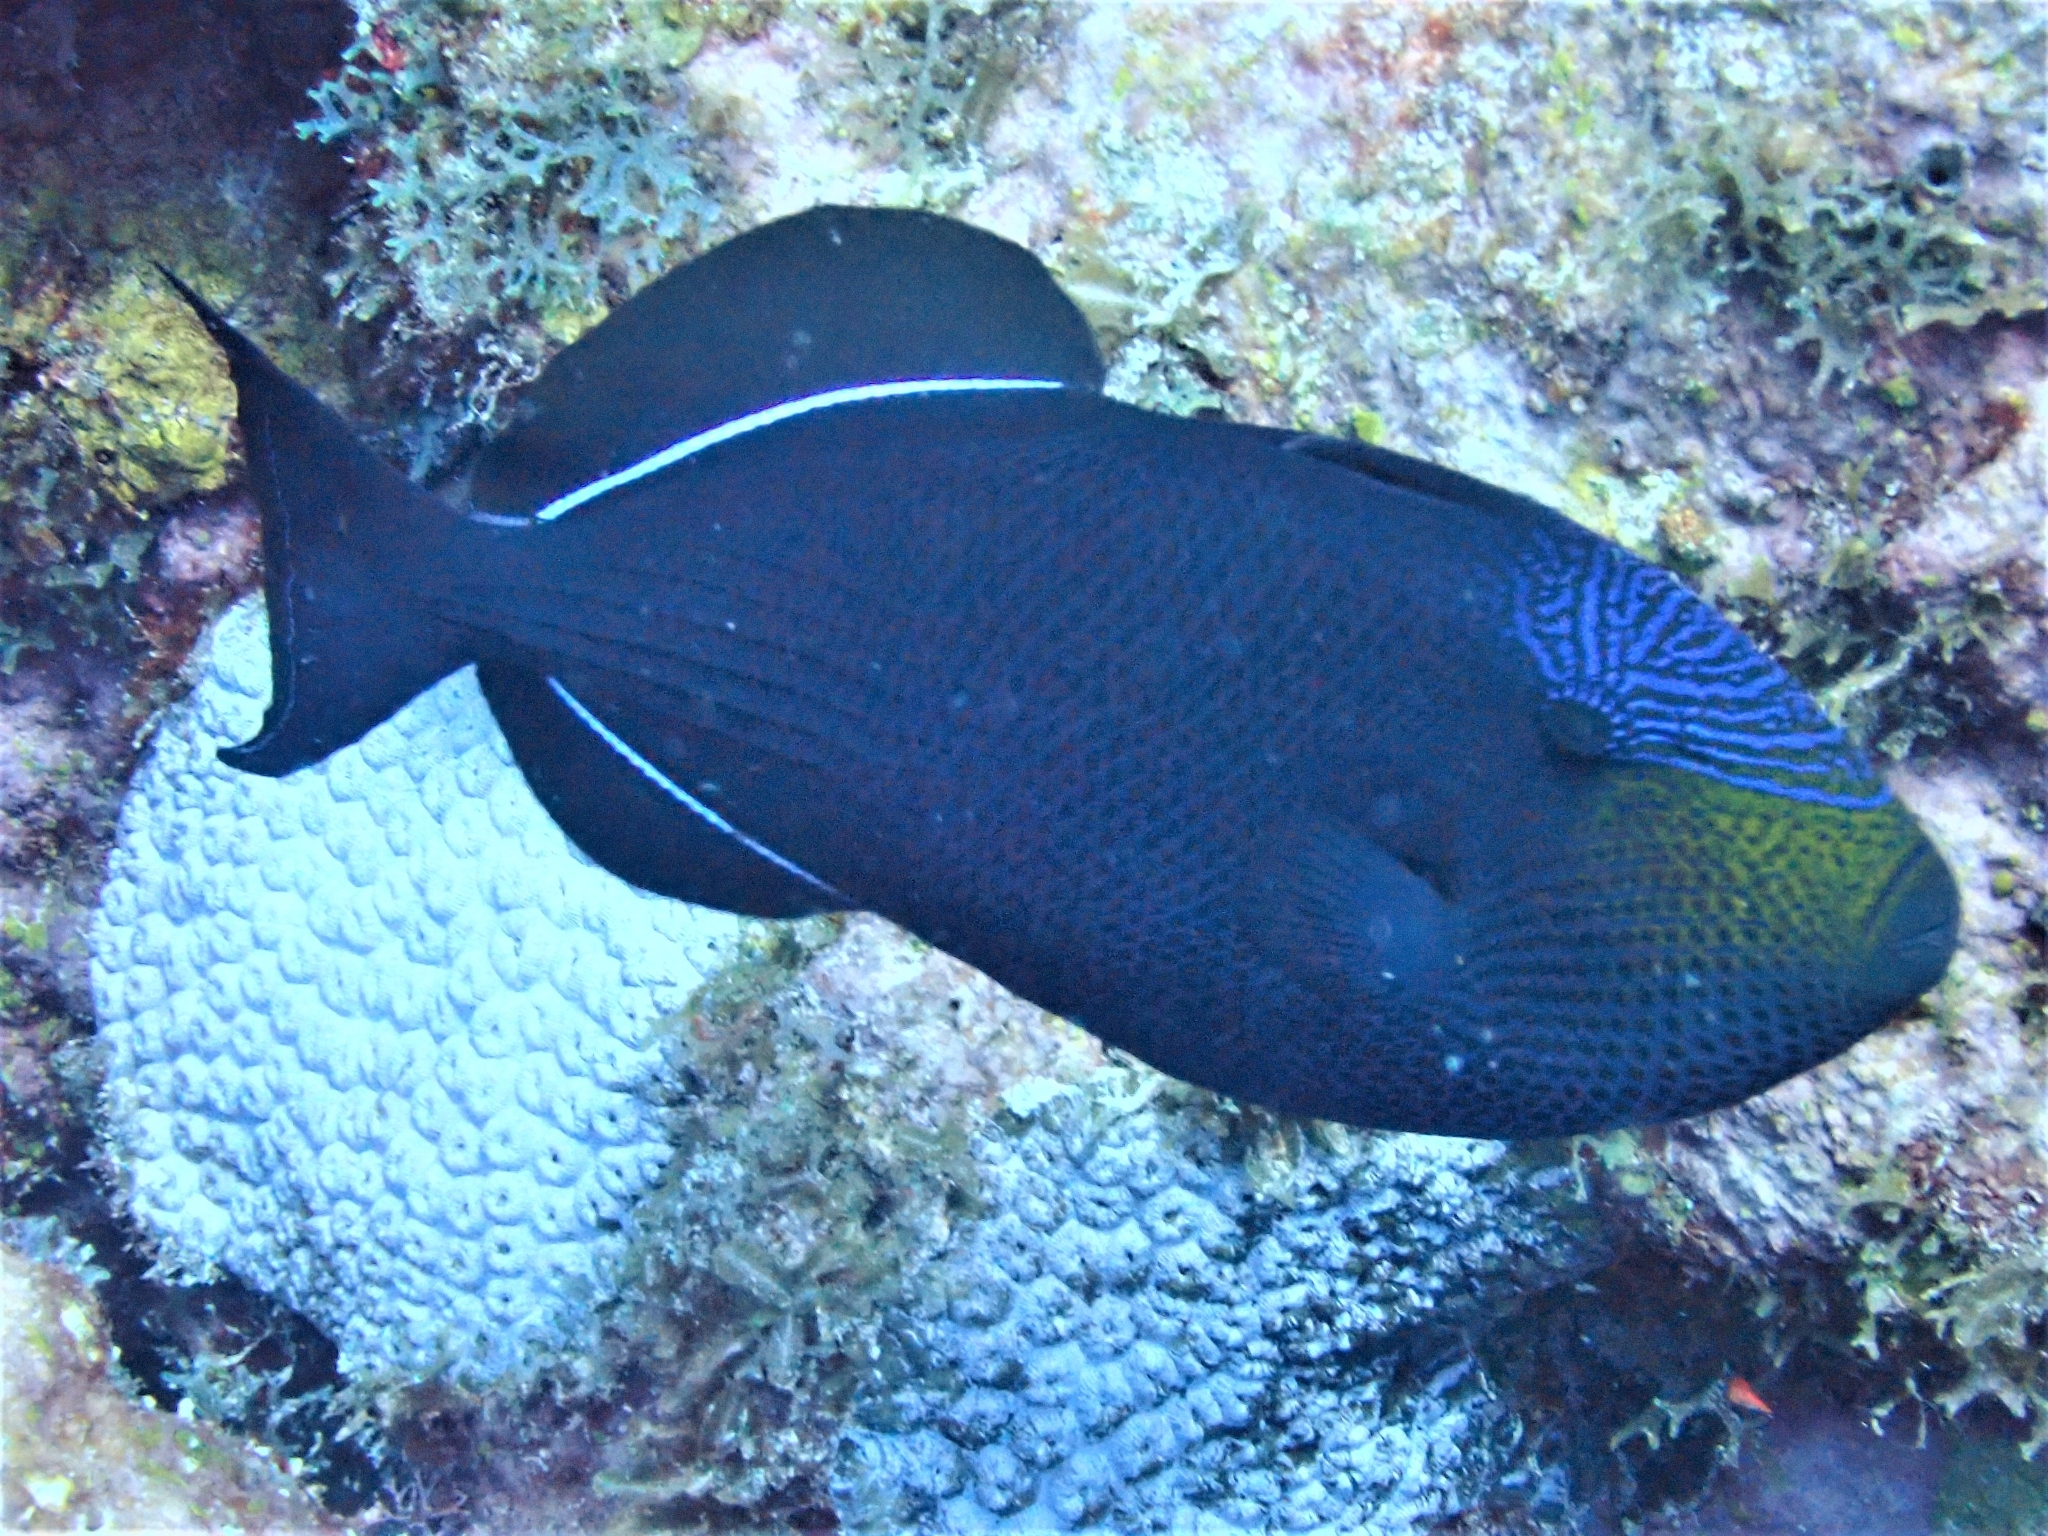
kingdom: Animalia
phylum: Chordata
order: Tetraodontiformes
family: Balistidae
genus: Melichthys
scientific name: Melichthys niger
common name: Black durgon
